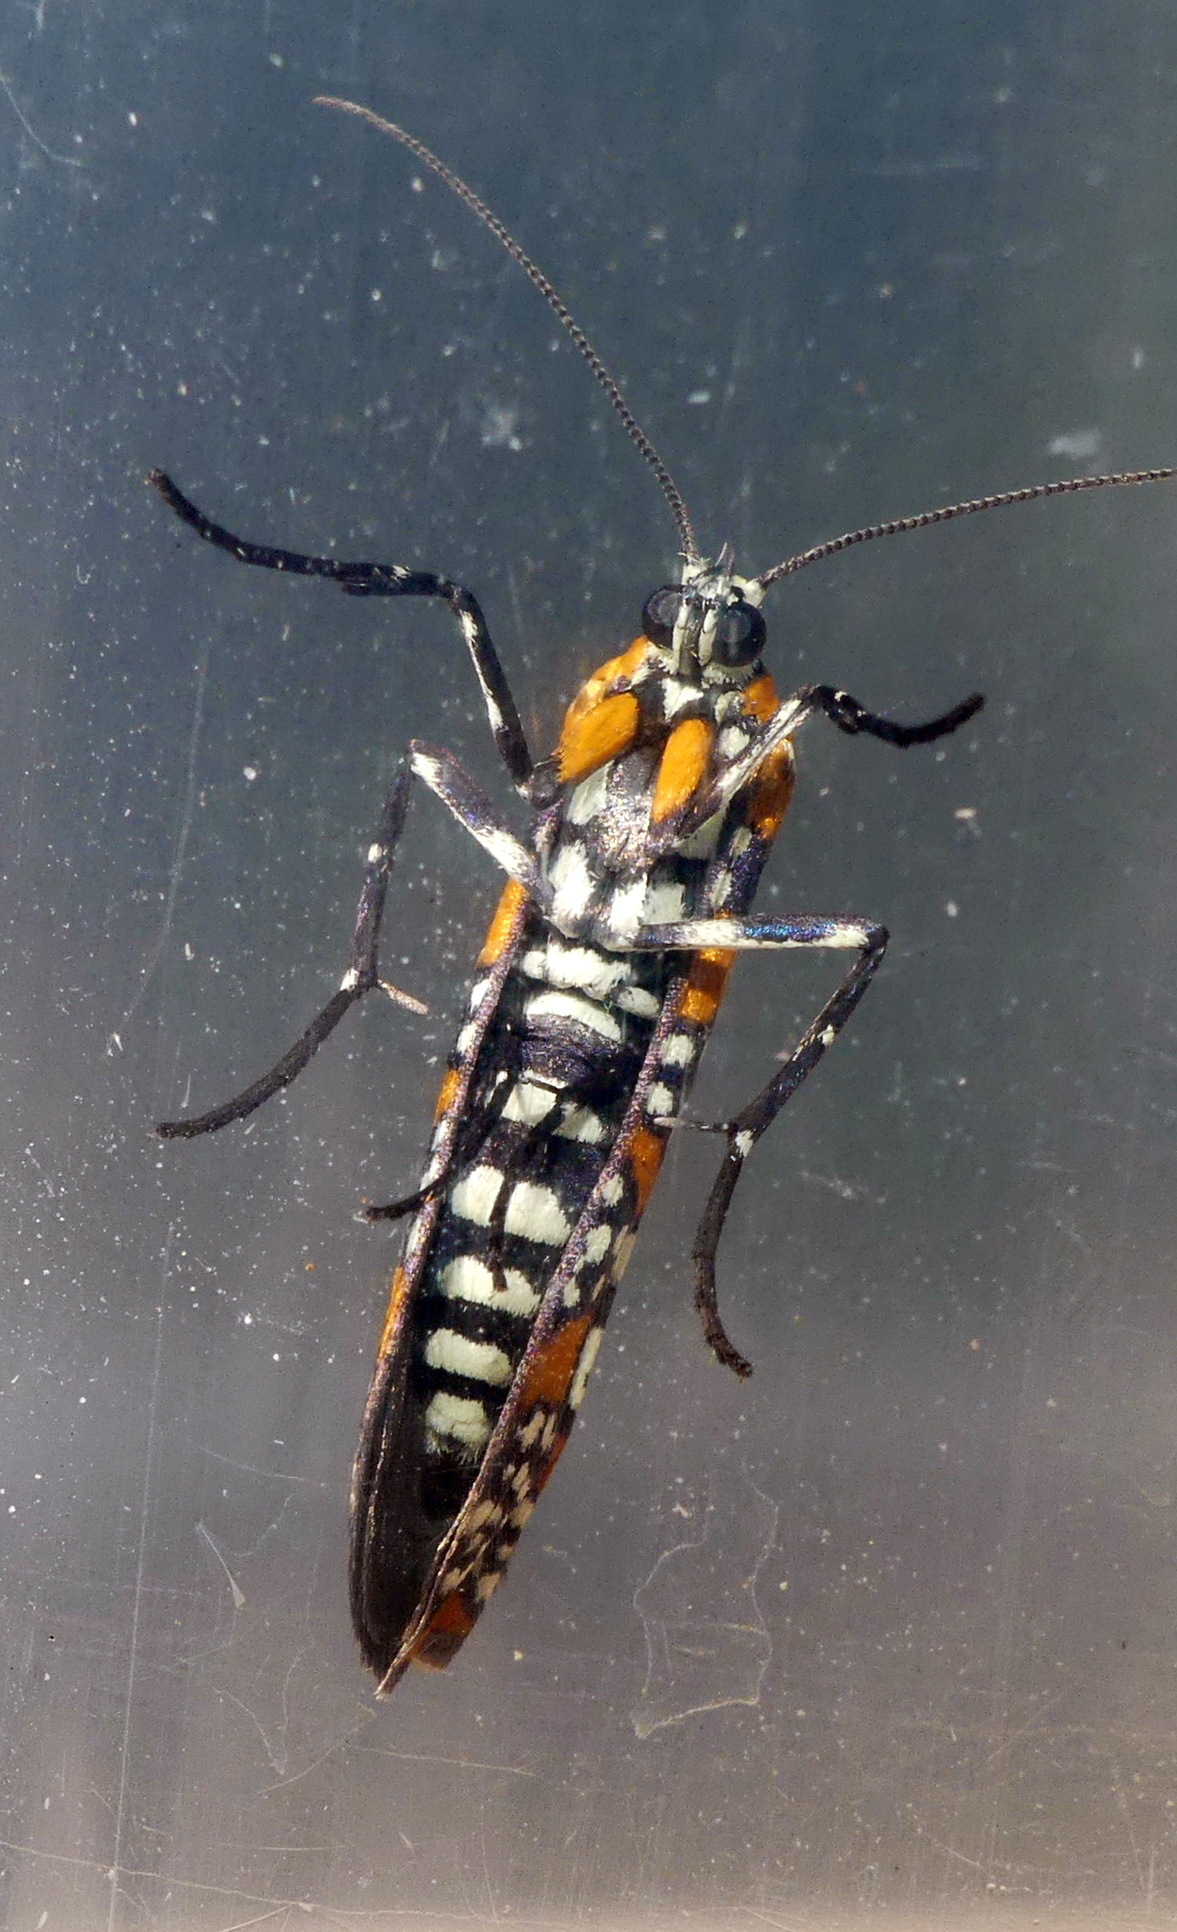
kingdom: Animalia
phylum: Arthropoda
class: Insecta
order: Lepidoptera
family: Attevidae
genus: Atteva
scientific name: Atteva punctella
